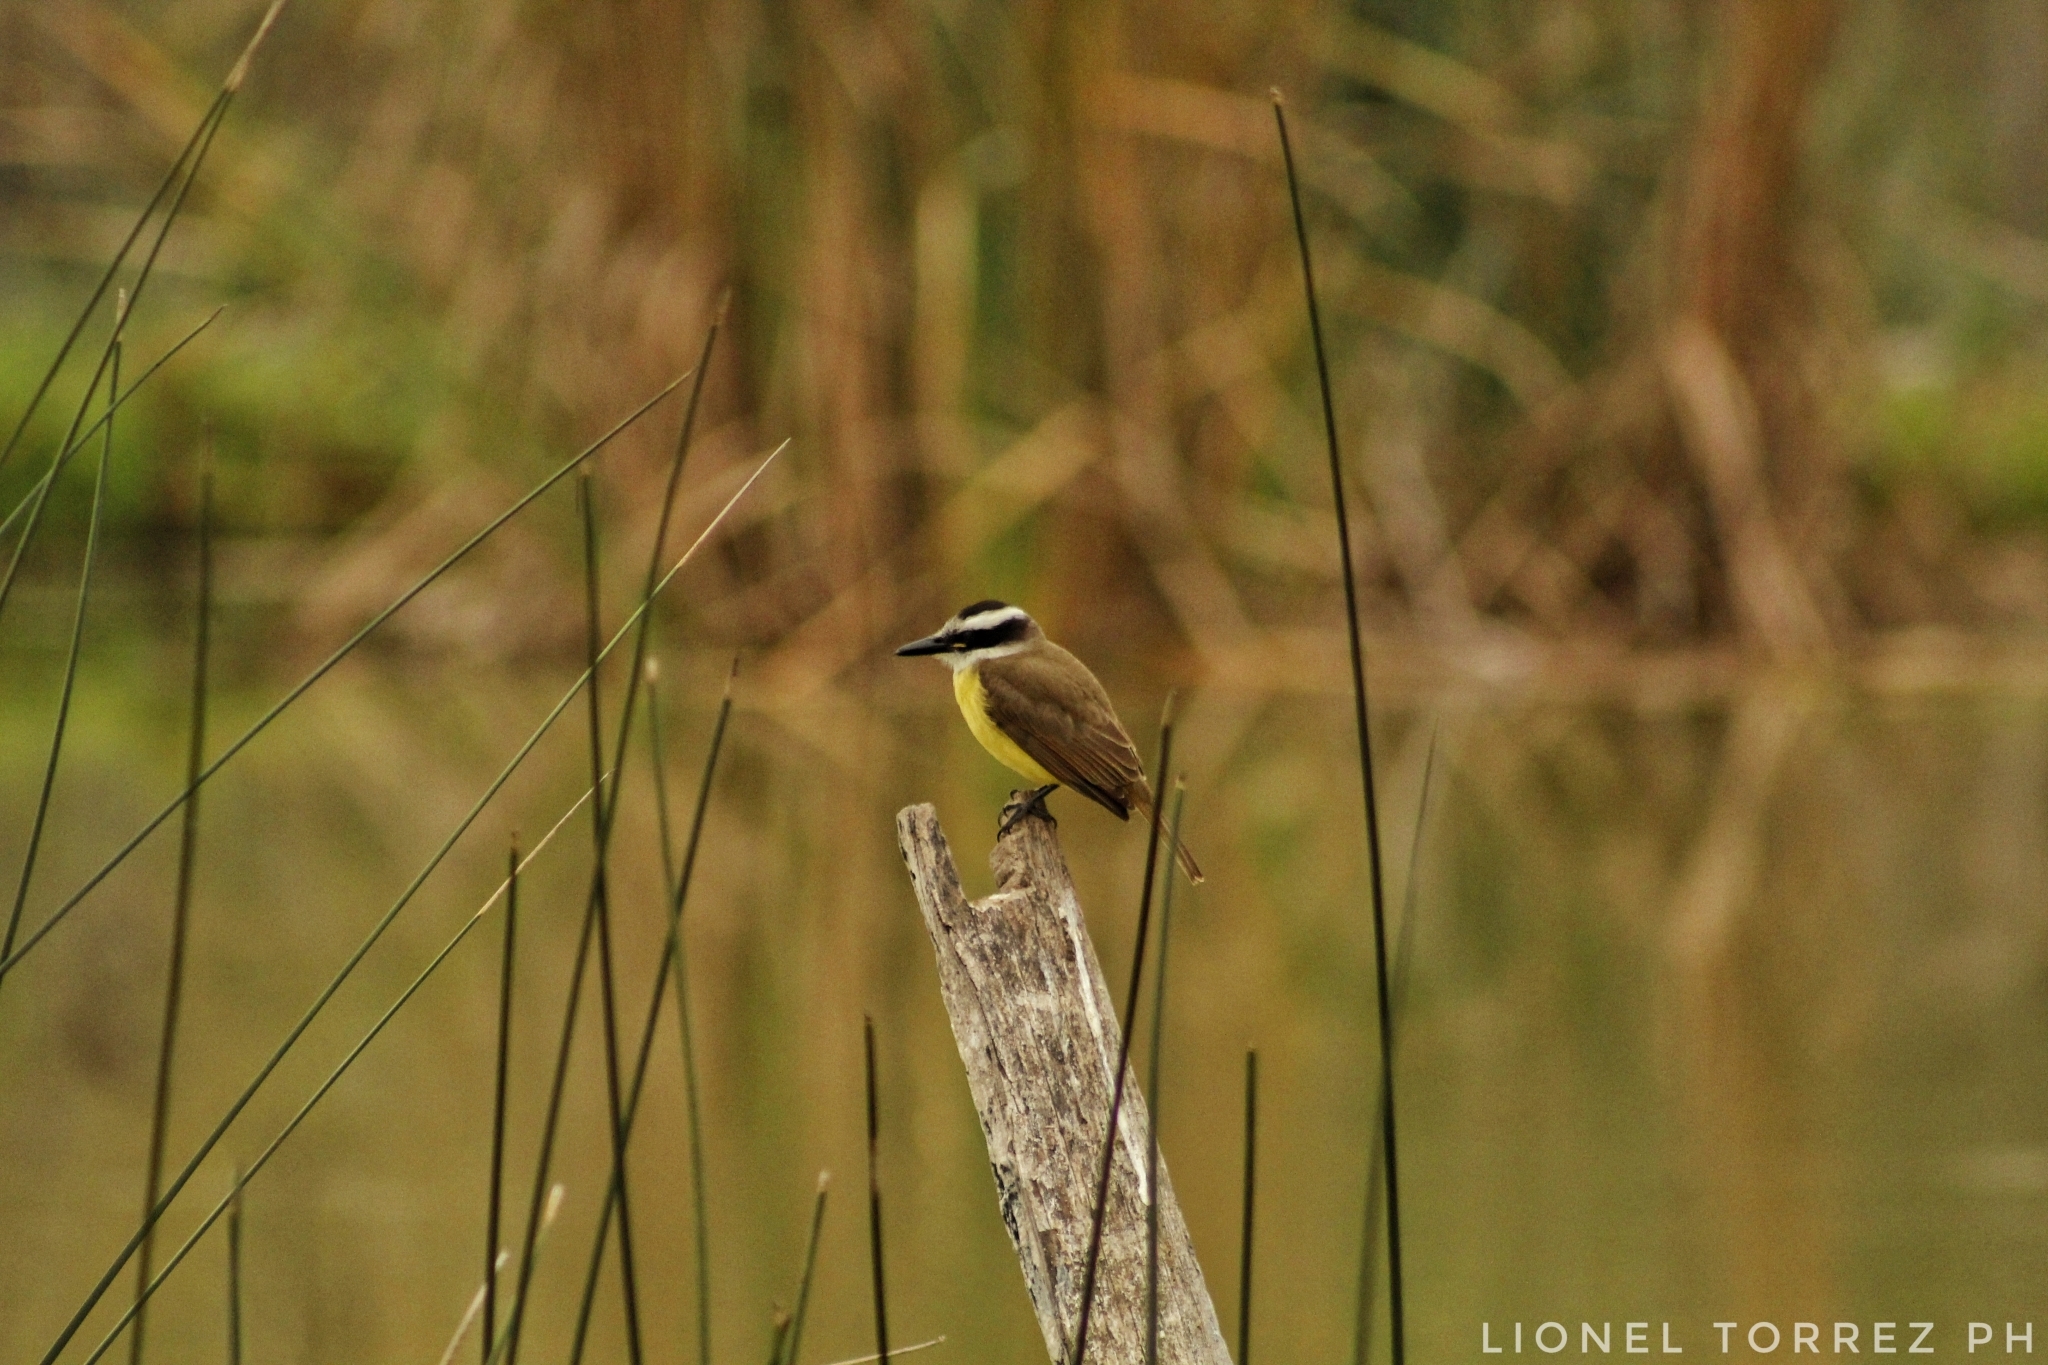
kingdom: Animalia
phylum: Chordata
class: Aves
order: Passeriformes
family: Tyrannidae
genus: Pitangus
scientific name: Pitangus sulphuratus
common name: Great kiskadee
